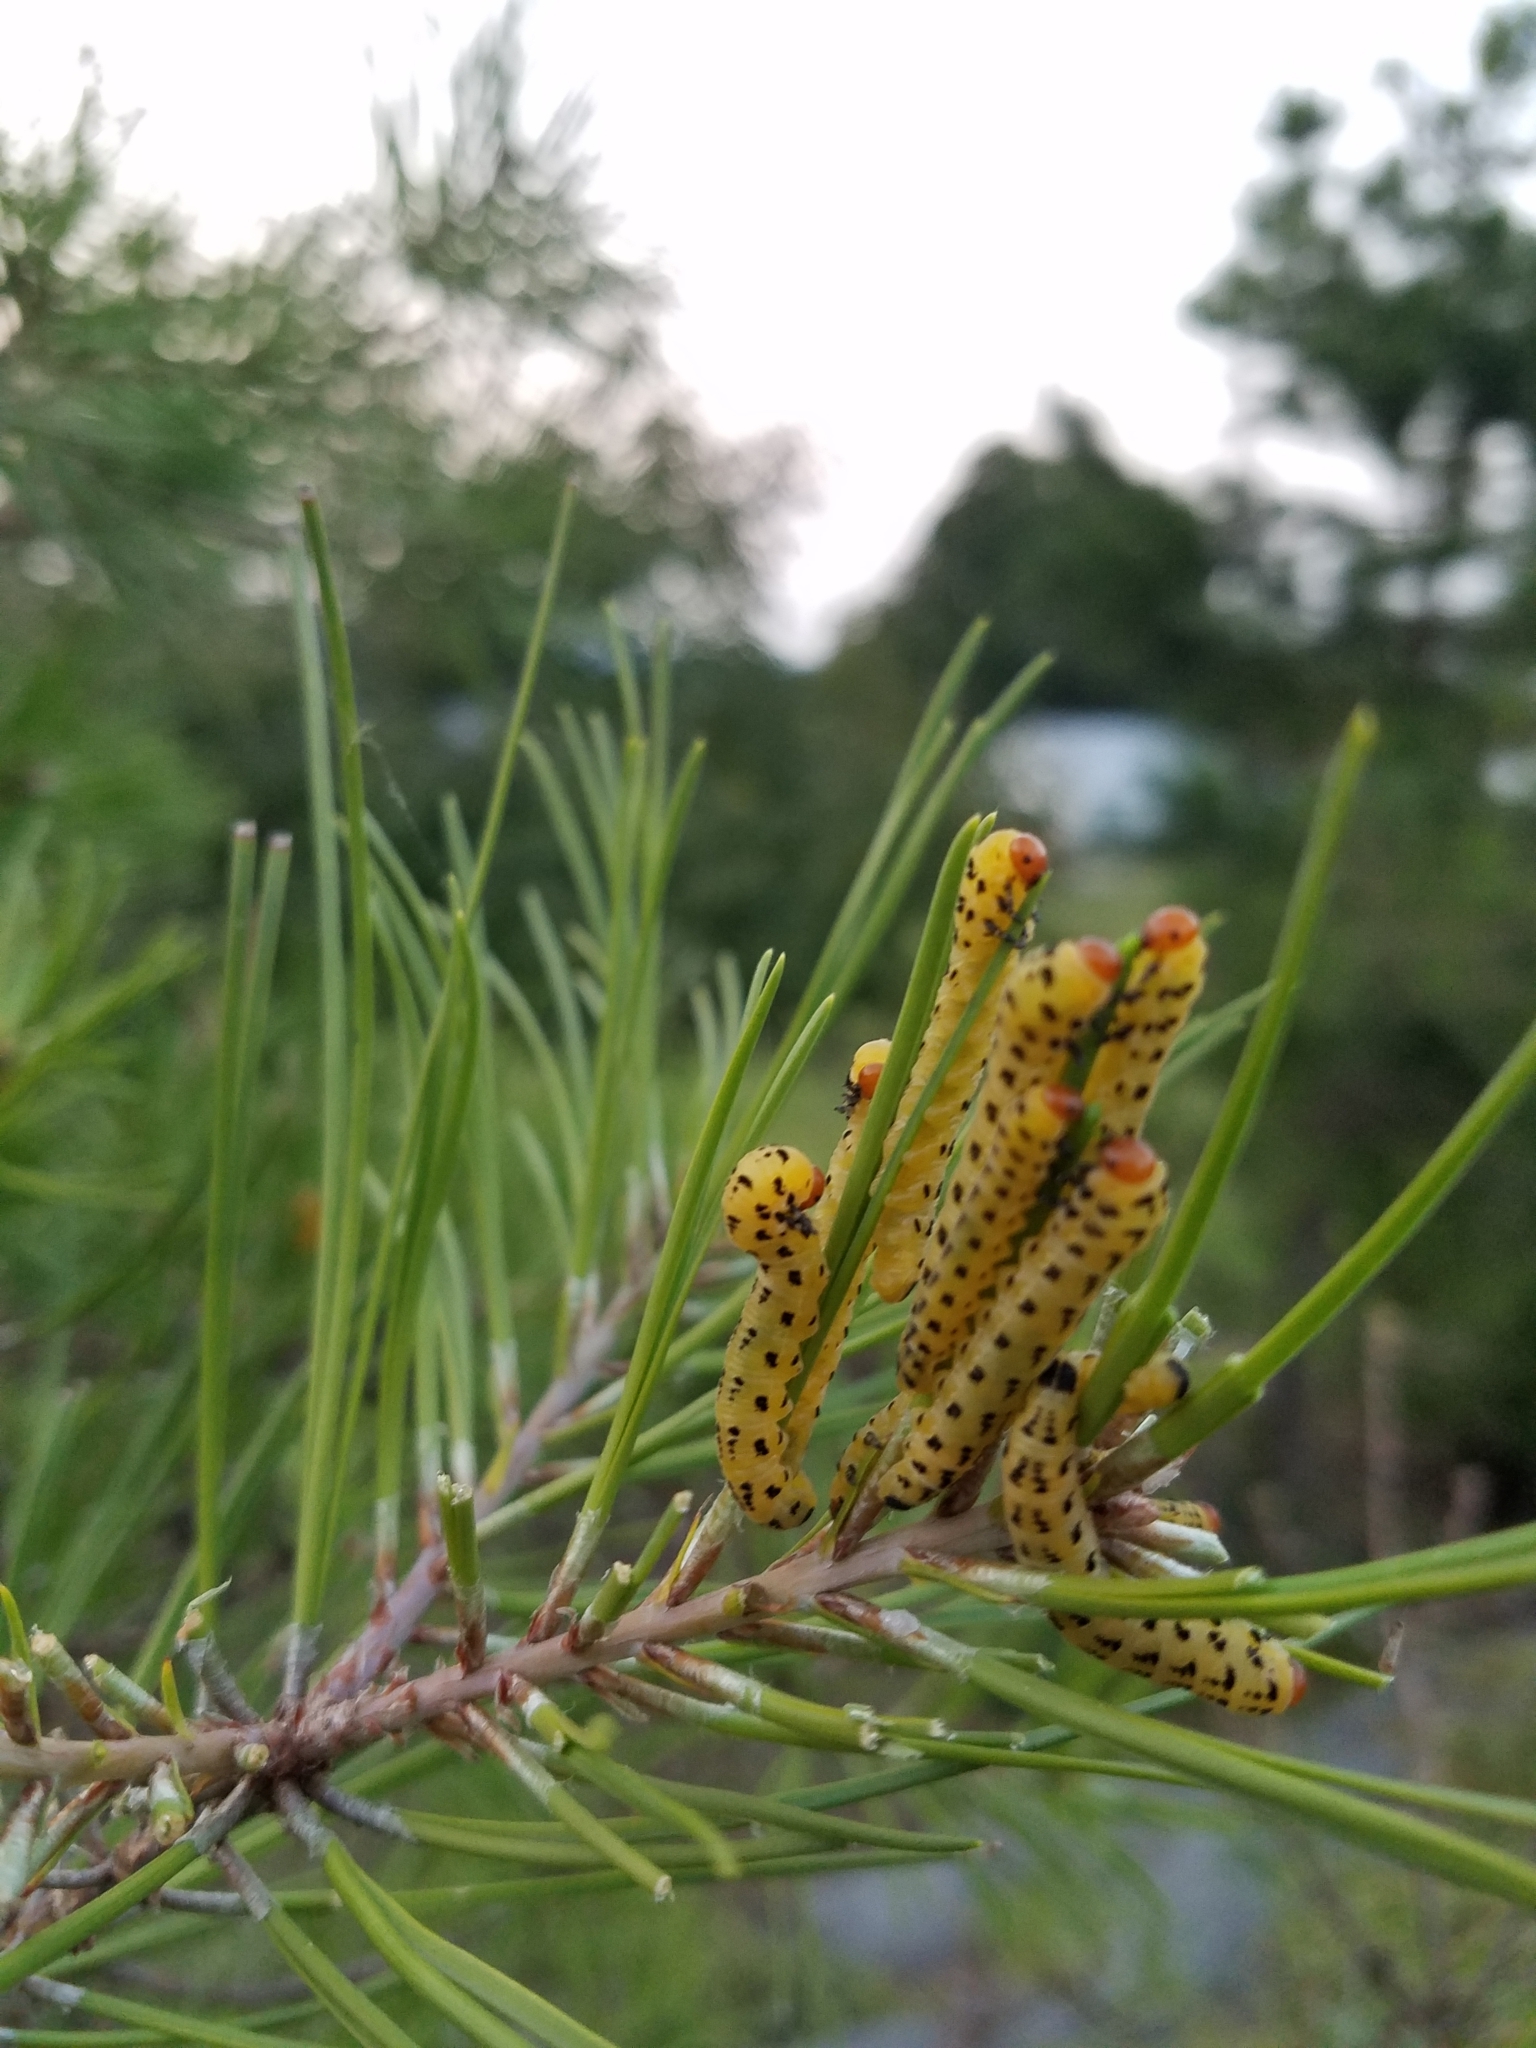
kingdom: Animalia
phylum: Arthropoda
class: Insecta
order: Hymenoptera
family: Diprionidae
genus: Neodiprion
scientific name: Neodiprion lecontei
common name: Redheaded pine sawfly
